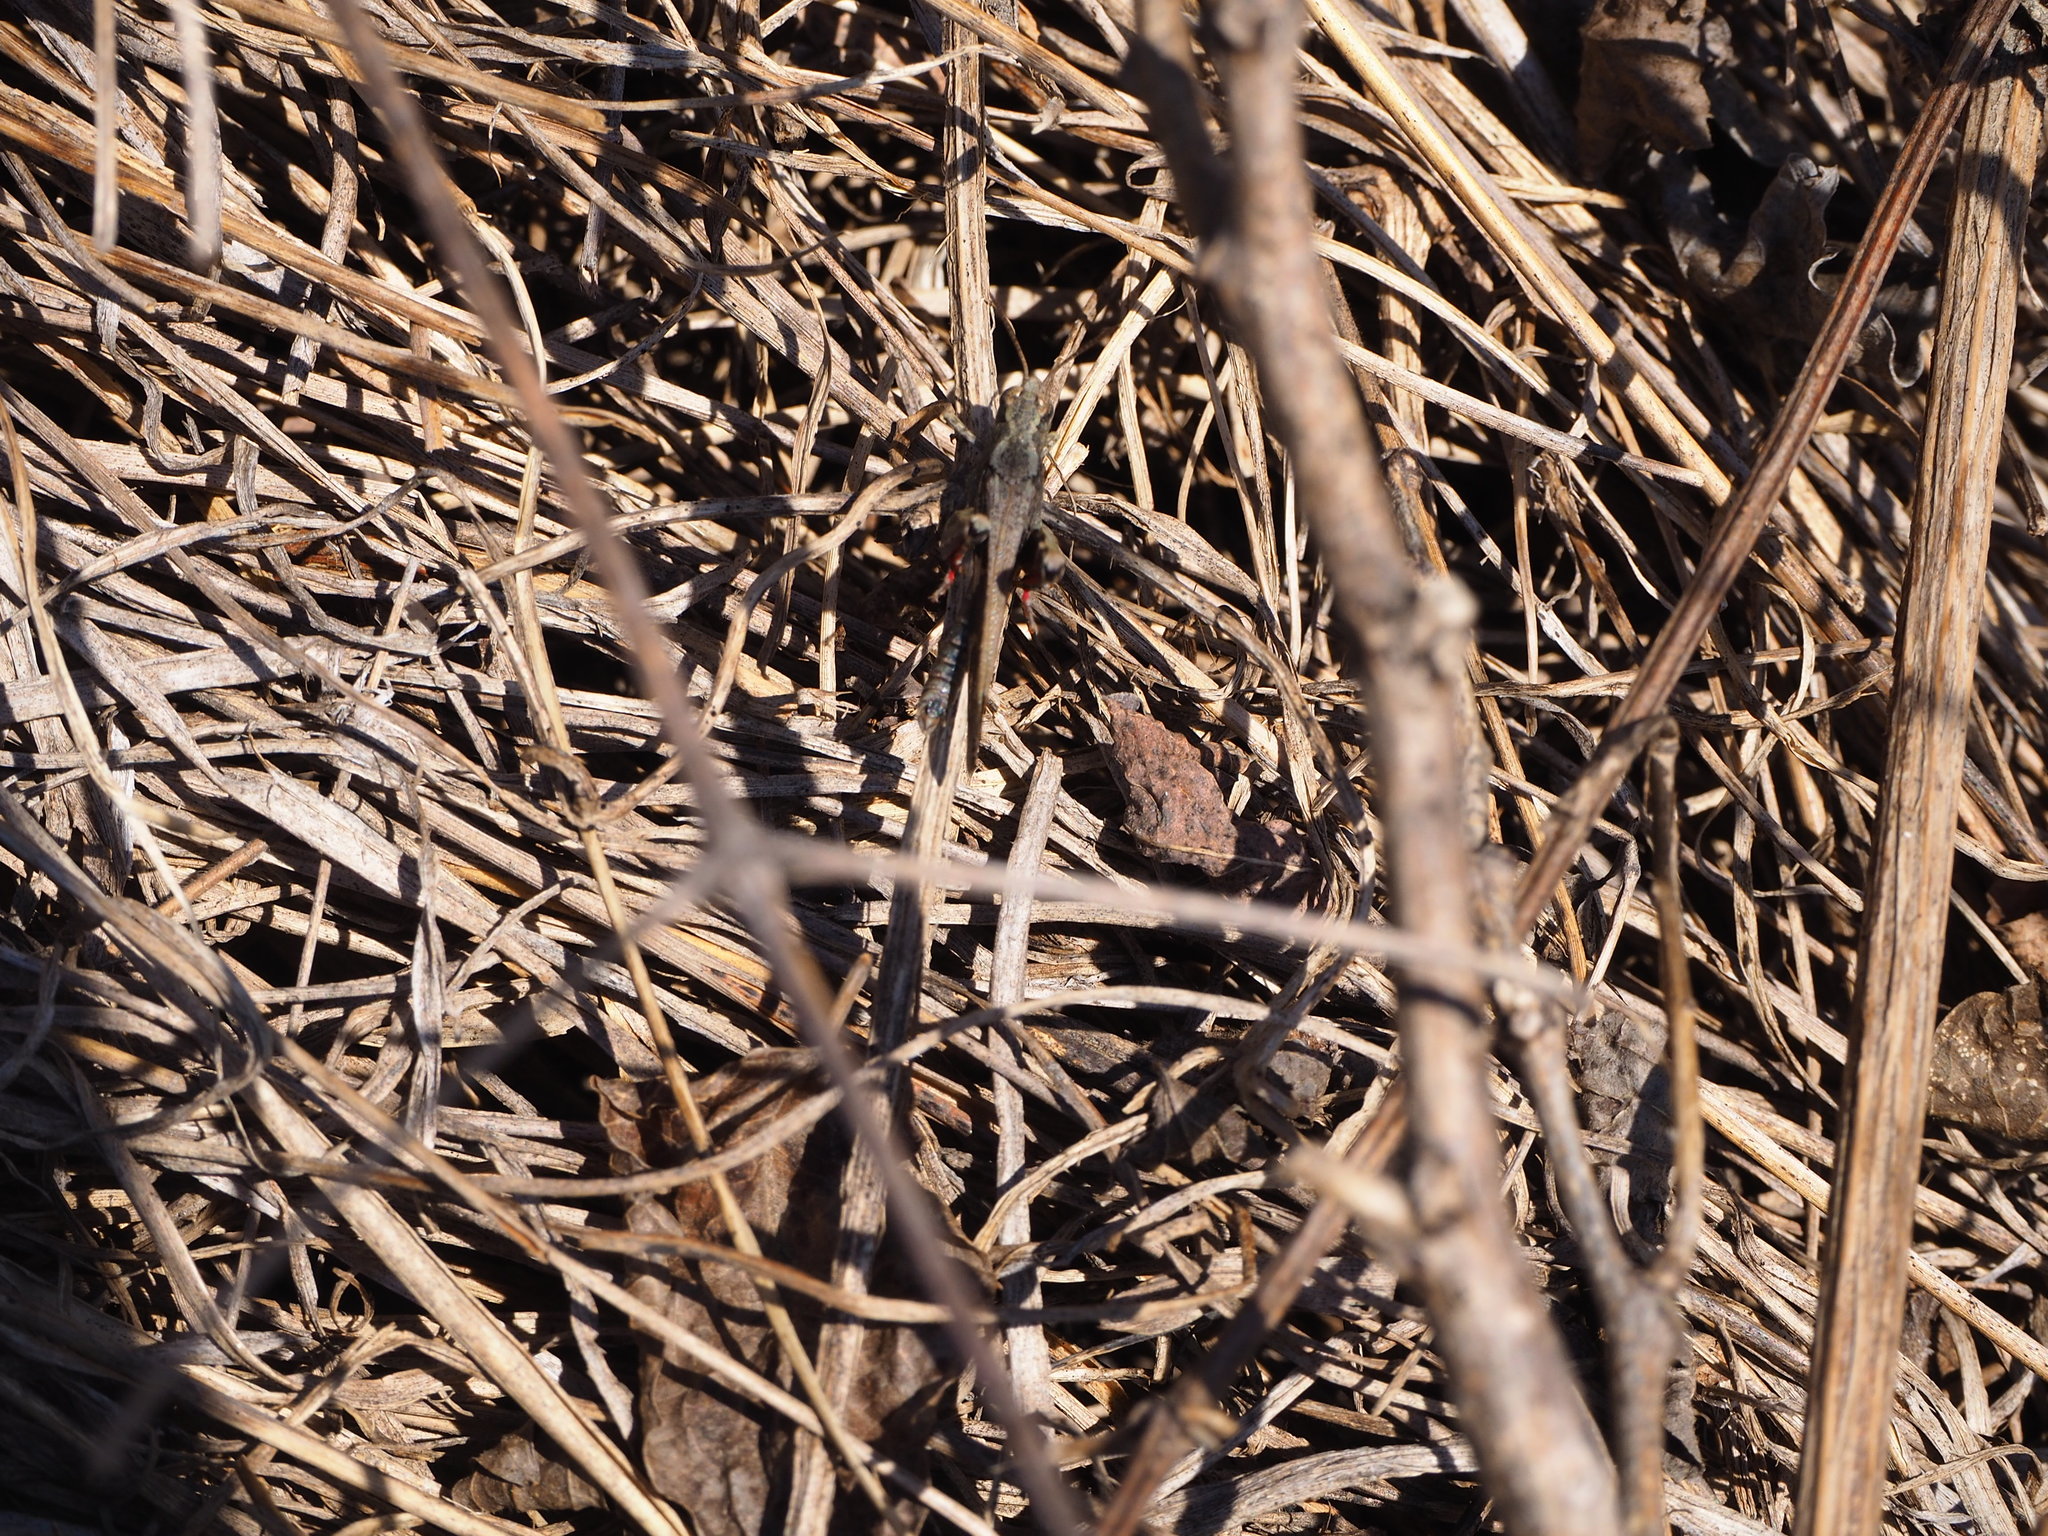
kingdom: Animalia
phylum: Arthropoda
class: Insecta
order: Orthoptera
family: Acrididae
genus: Aiolopus
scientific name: Aiolopus strepens
